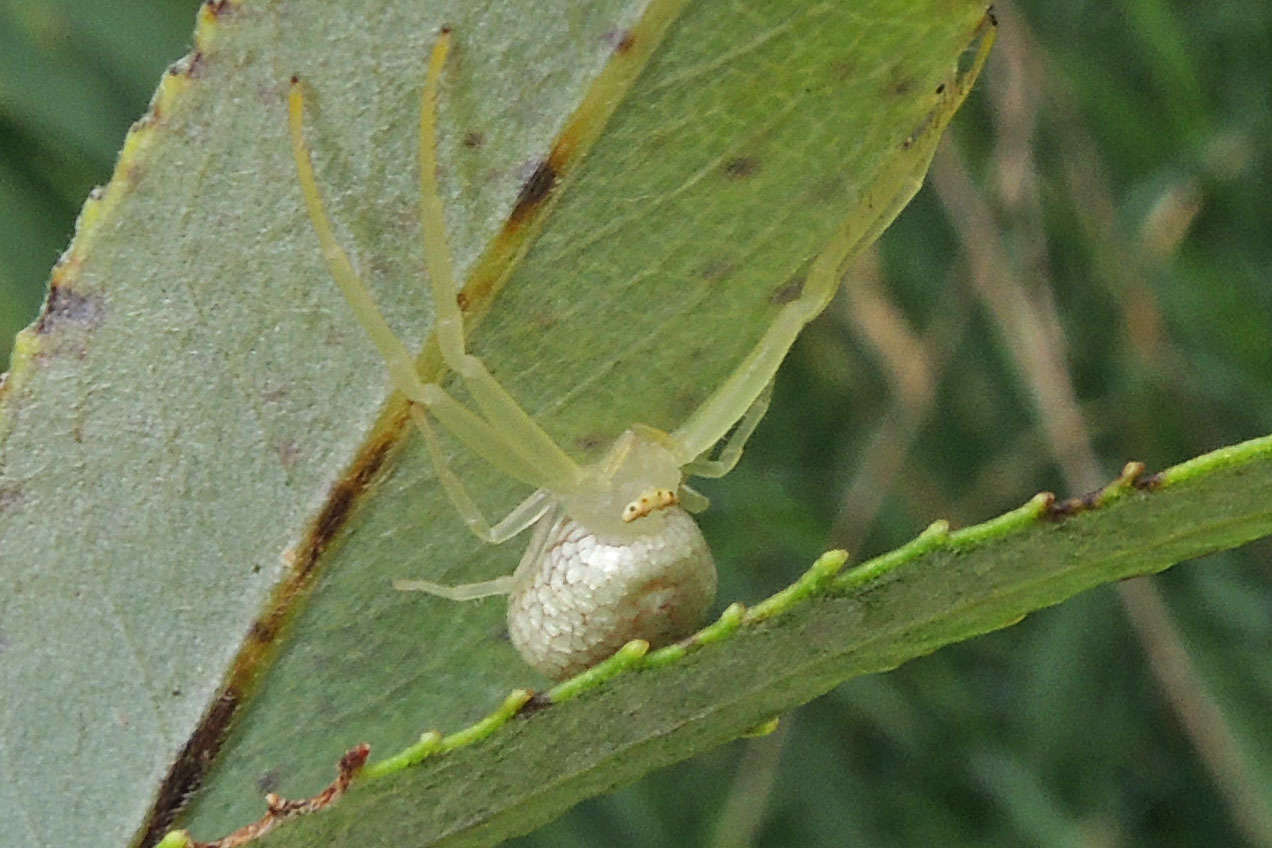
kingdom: Animalia
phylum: Arthropoda
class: Arachnida
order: Araneae
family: Thomisidae
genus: Misumessus
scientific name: Misumessus oblongus
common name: American green crab spider
